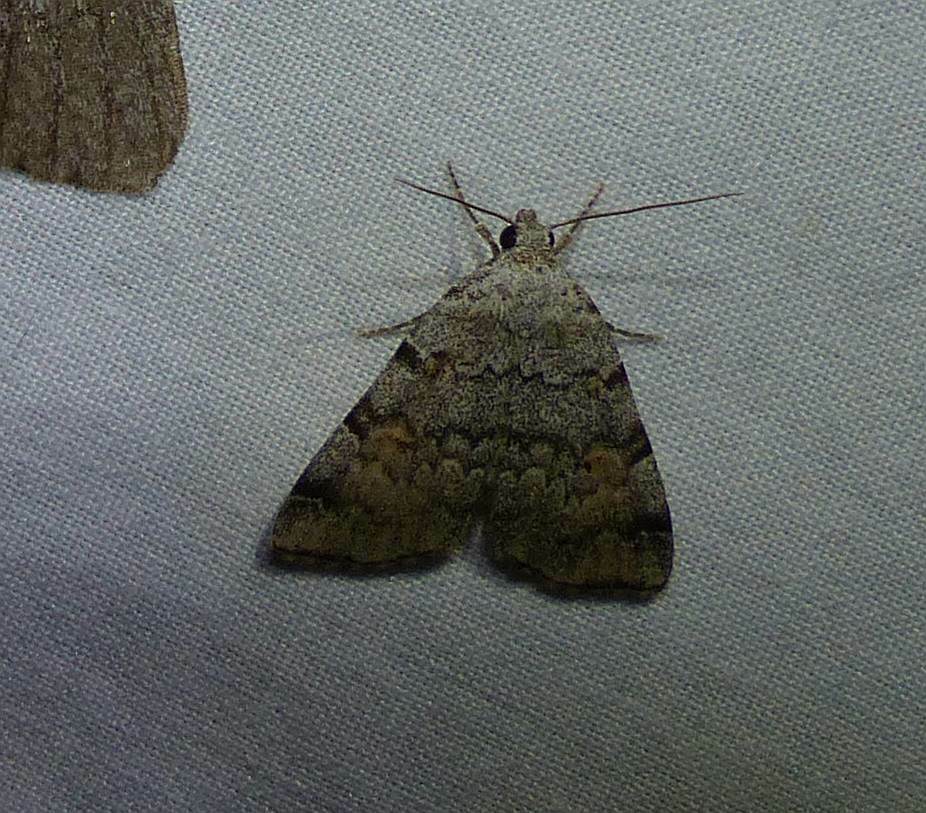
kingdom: Animalia
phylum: Arthropoda
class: Insecta
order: Lepidoptera
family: Erebidae
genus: Idia
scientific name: Idia americalis
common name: American idia moth
